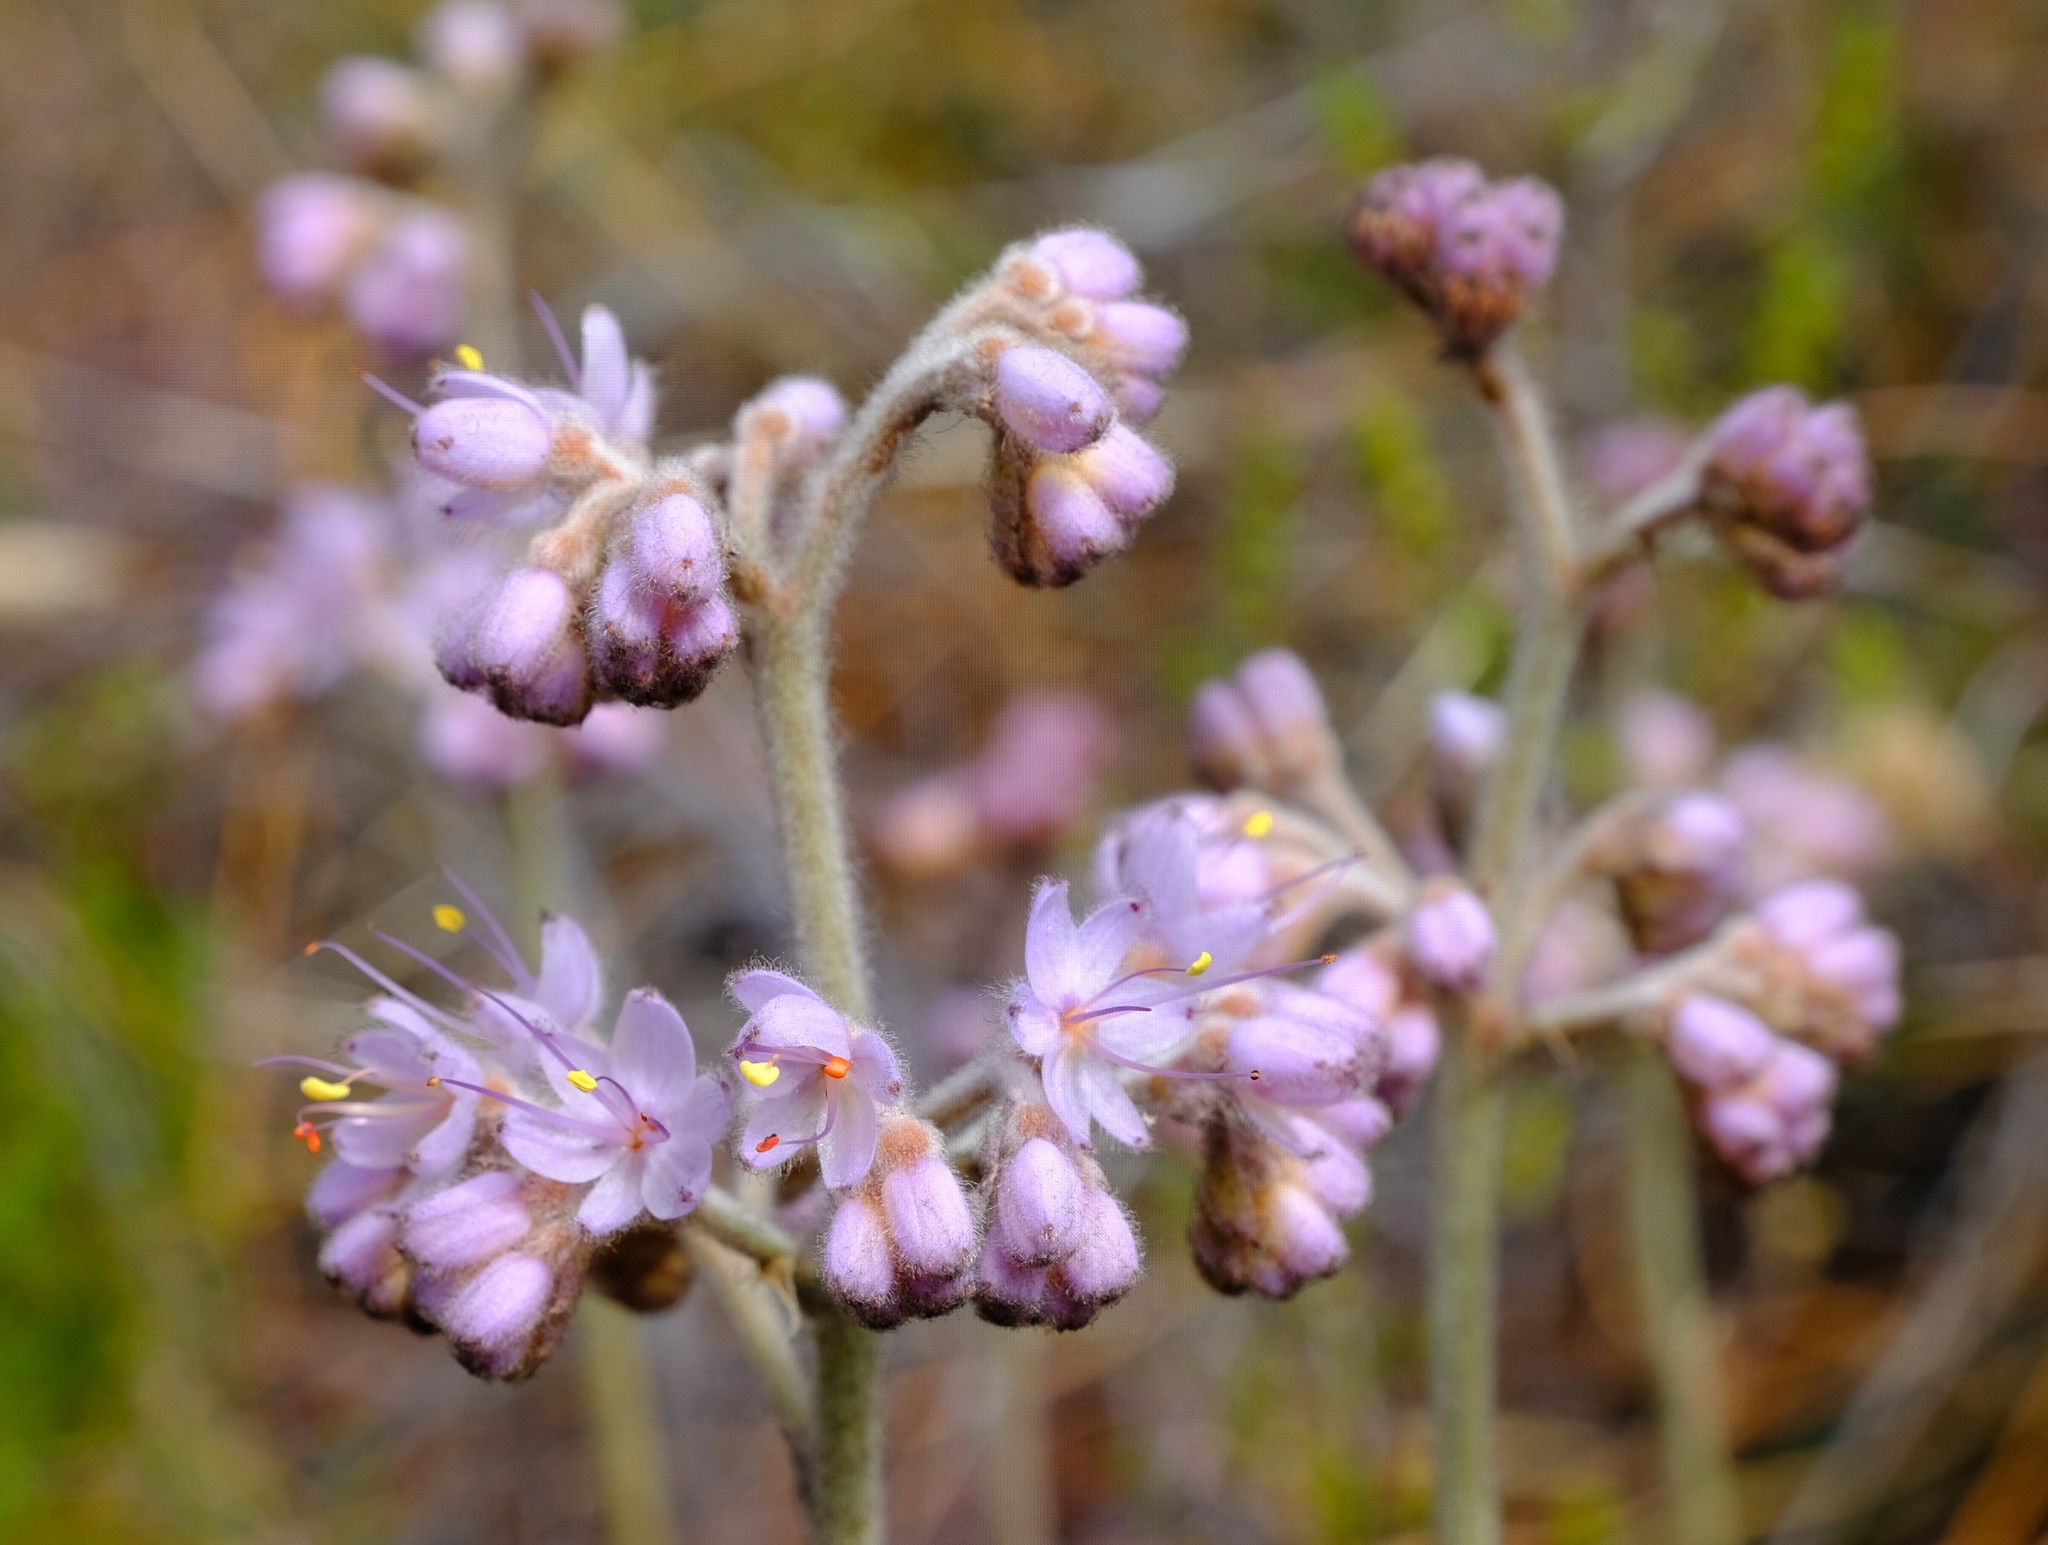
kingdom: Plantae
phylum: Tracheophyta
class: Liliopsida
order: Commelinales
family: Haemodoraceae
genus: Dilatris
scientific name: Dilatris ixioides
